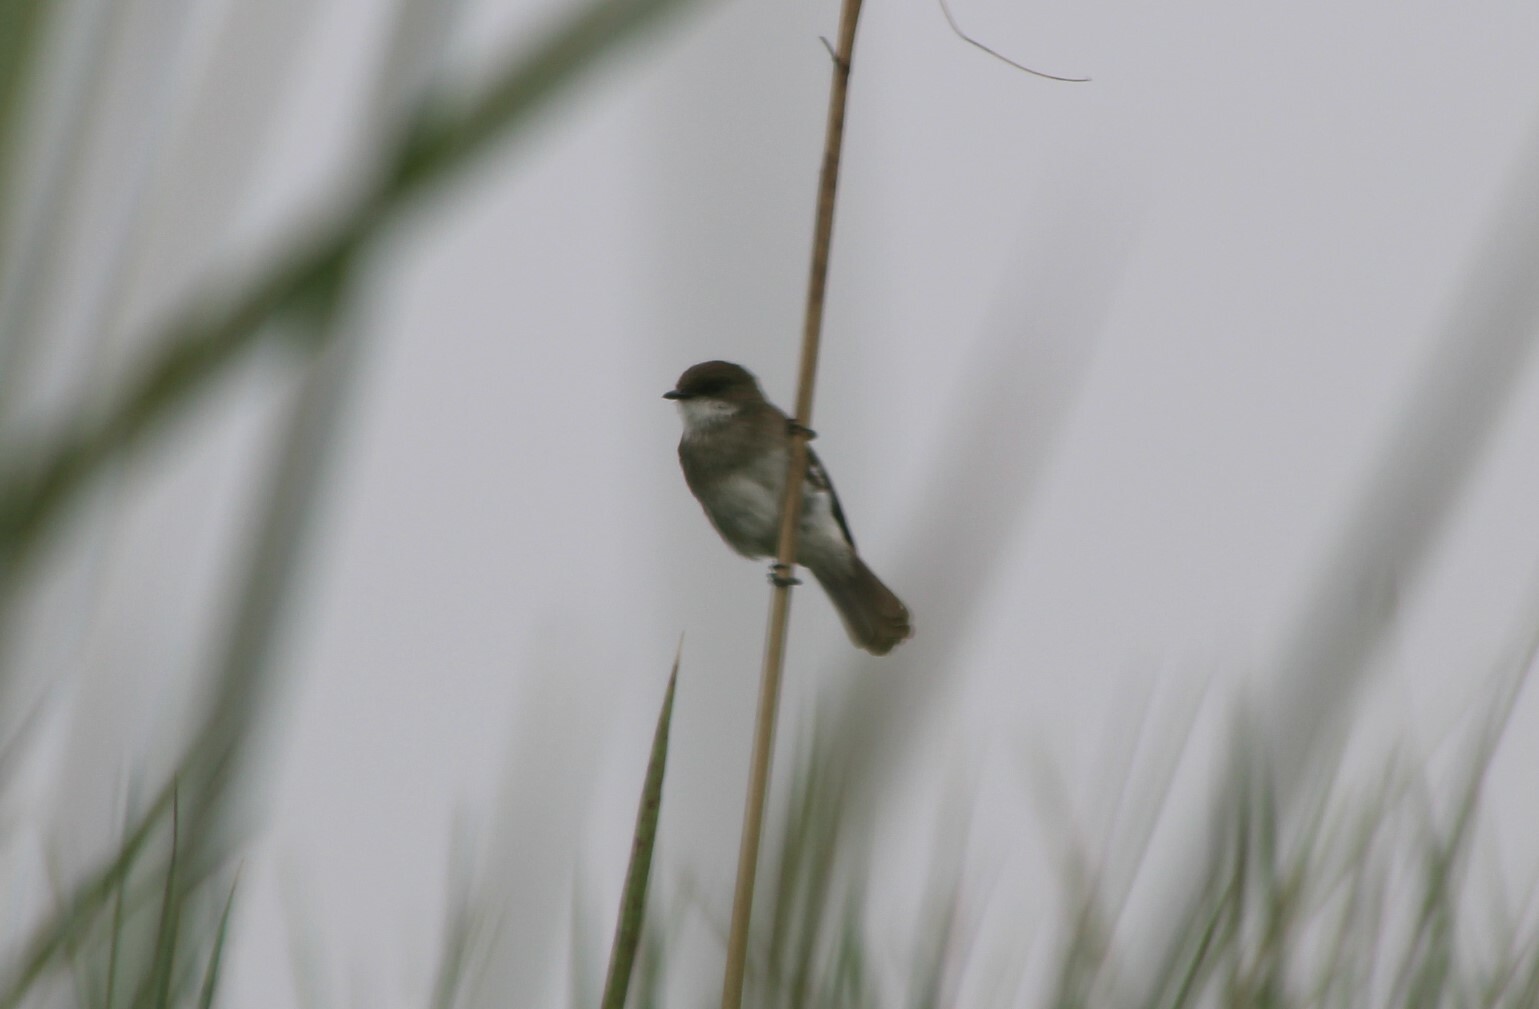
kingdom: Animalia
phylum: Chordata
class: Aves
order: Passeriformes
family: Muscicapidae
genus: Muscicapa
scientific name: Muscicapa aquatica
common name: Swamp flycatcher
